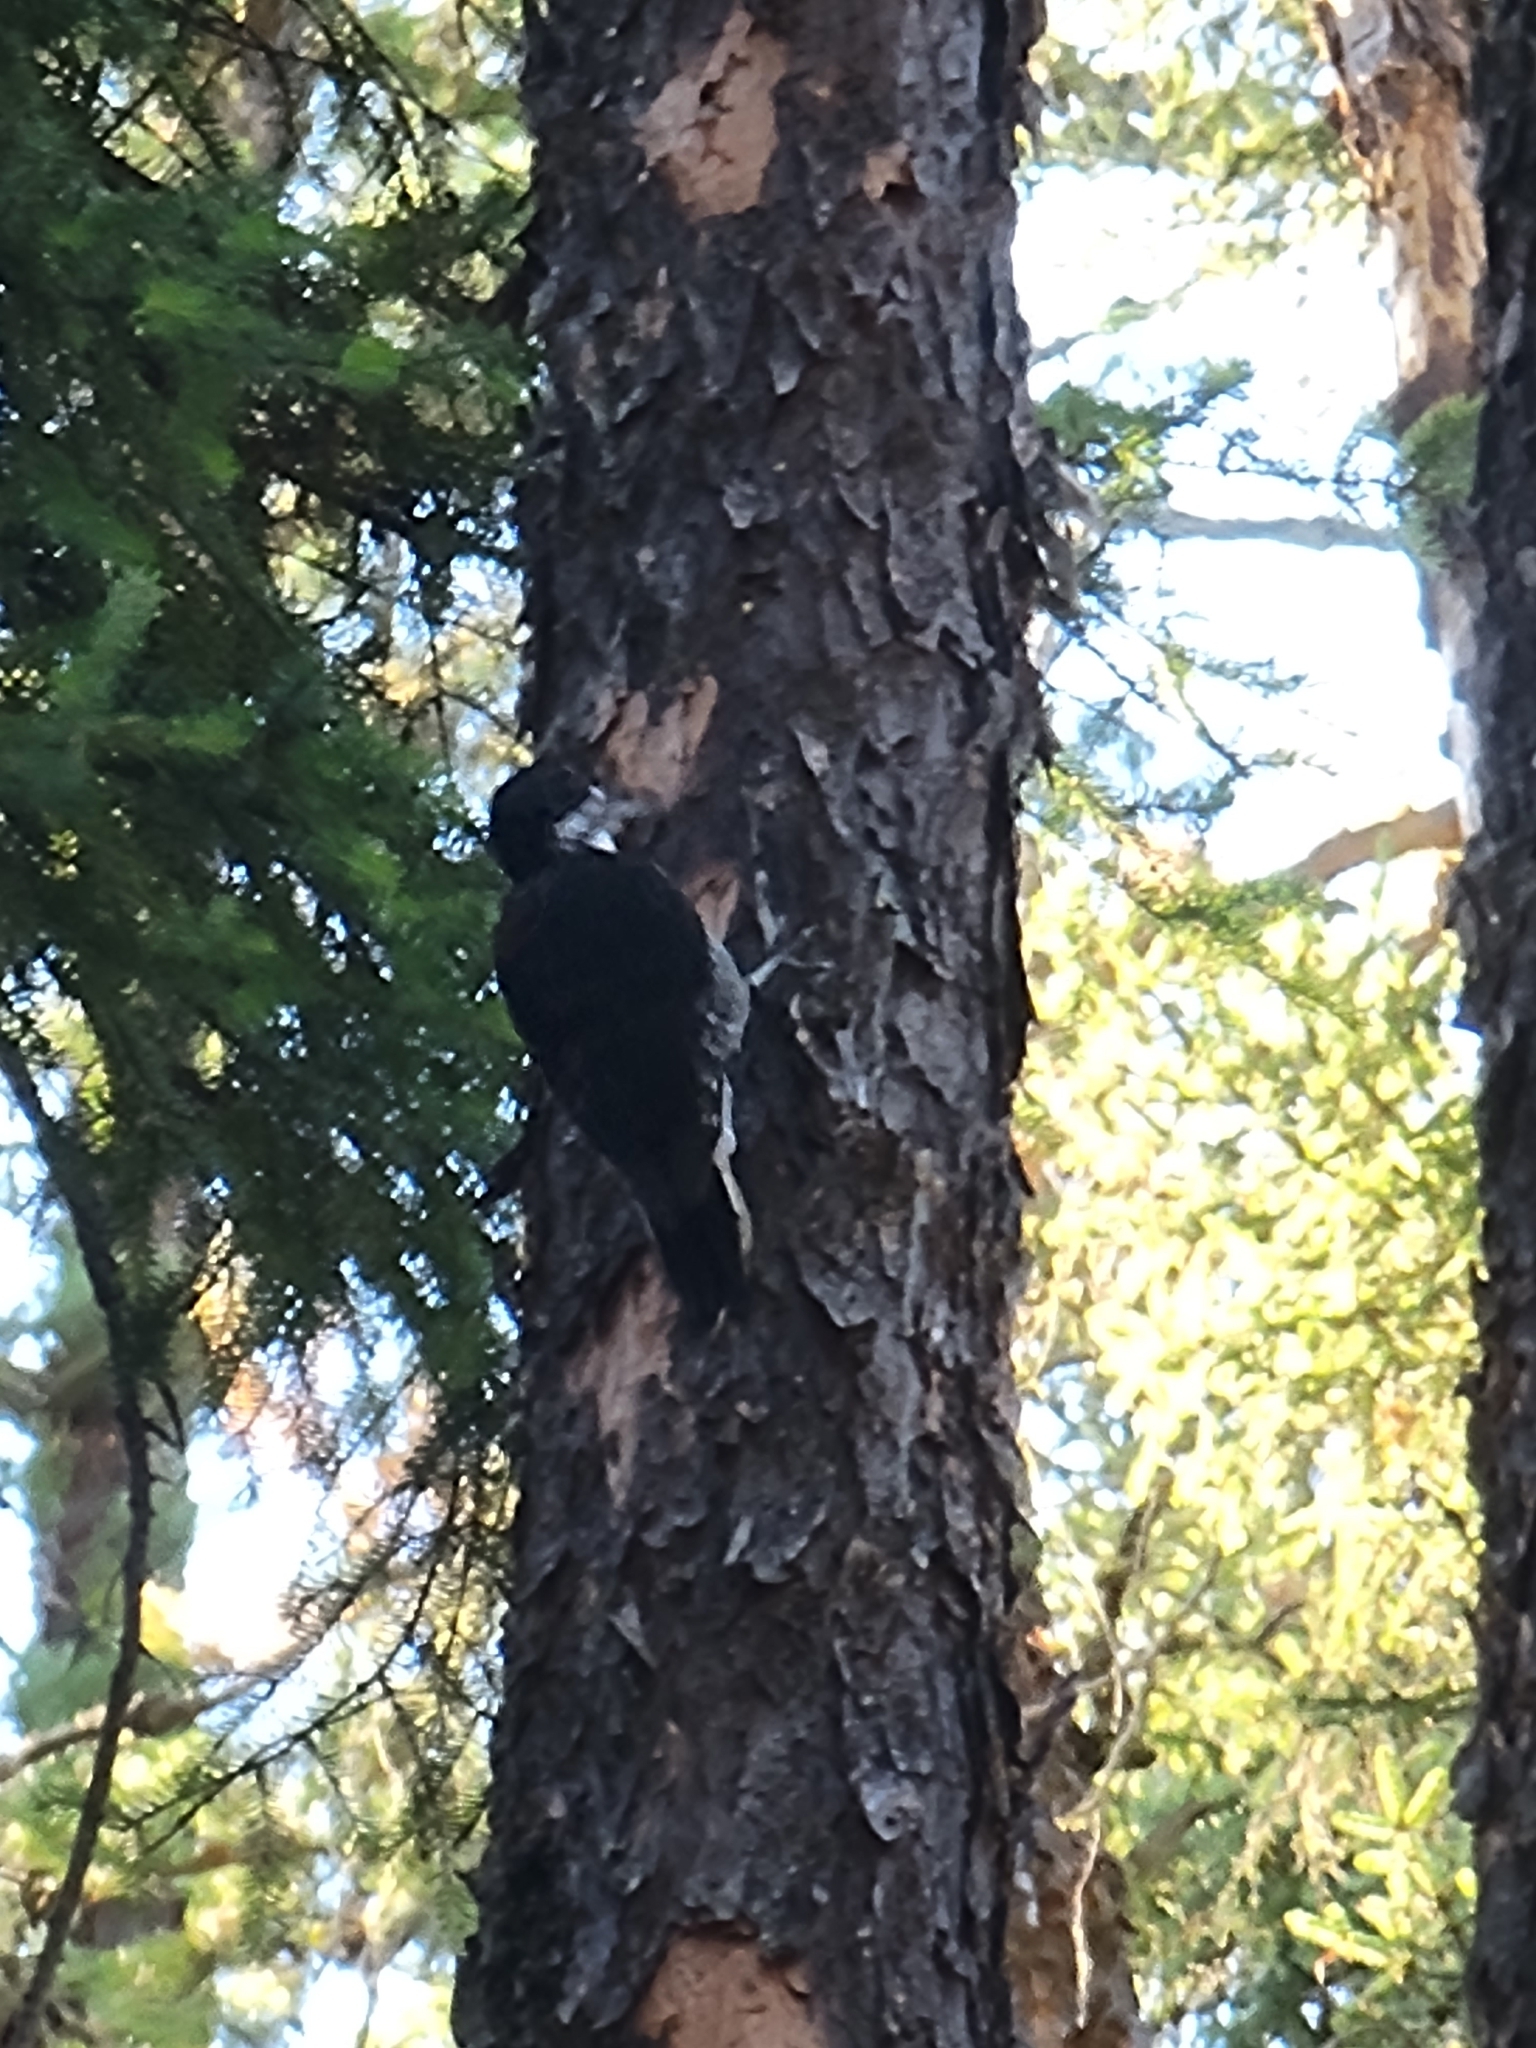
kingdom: Animalia
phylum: Chordata
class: Aves
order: Piciformes
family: Picidae
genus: Picoides
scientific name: Picoides arcticus
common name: Black-backed woodpecker
